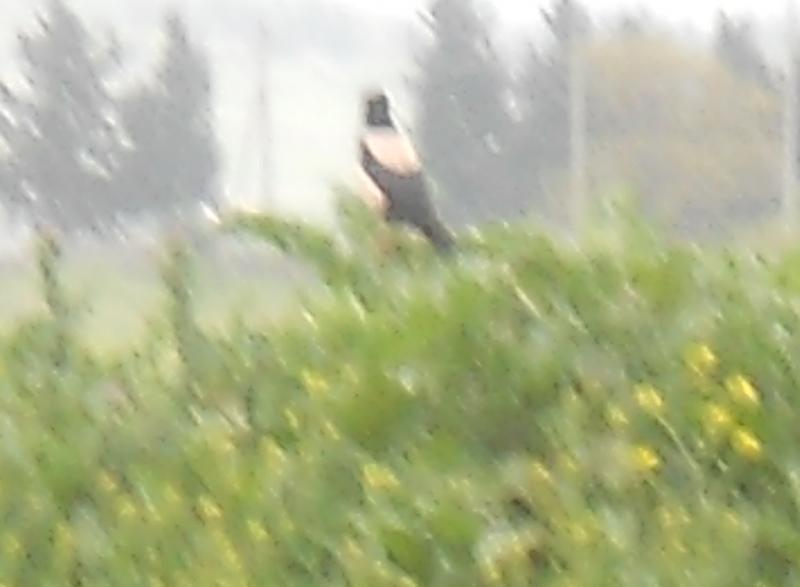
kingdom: Animalia
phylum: Chordata
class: Aves
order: Passeriformes
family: Sturnidae
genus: Pastor
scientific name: Pastor roseus
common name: Rosy starling
